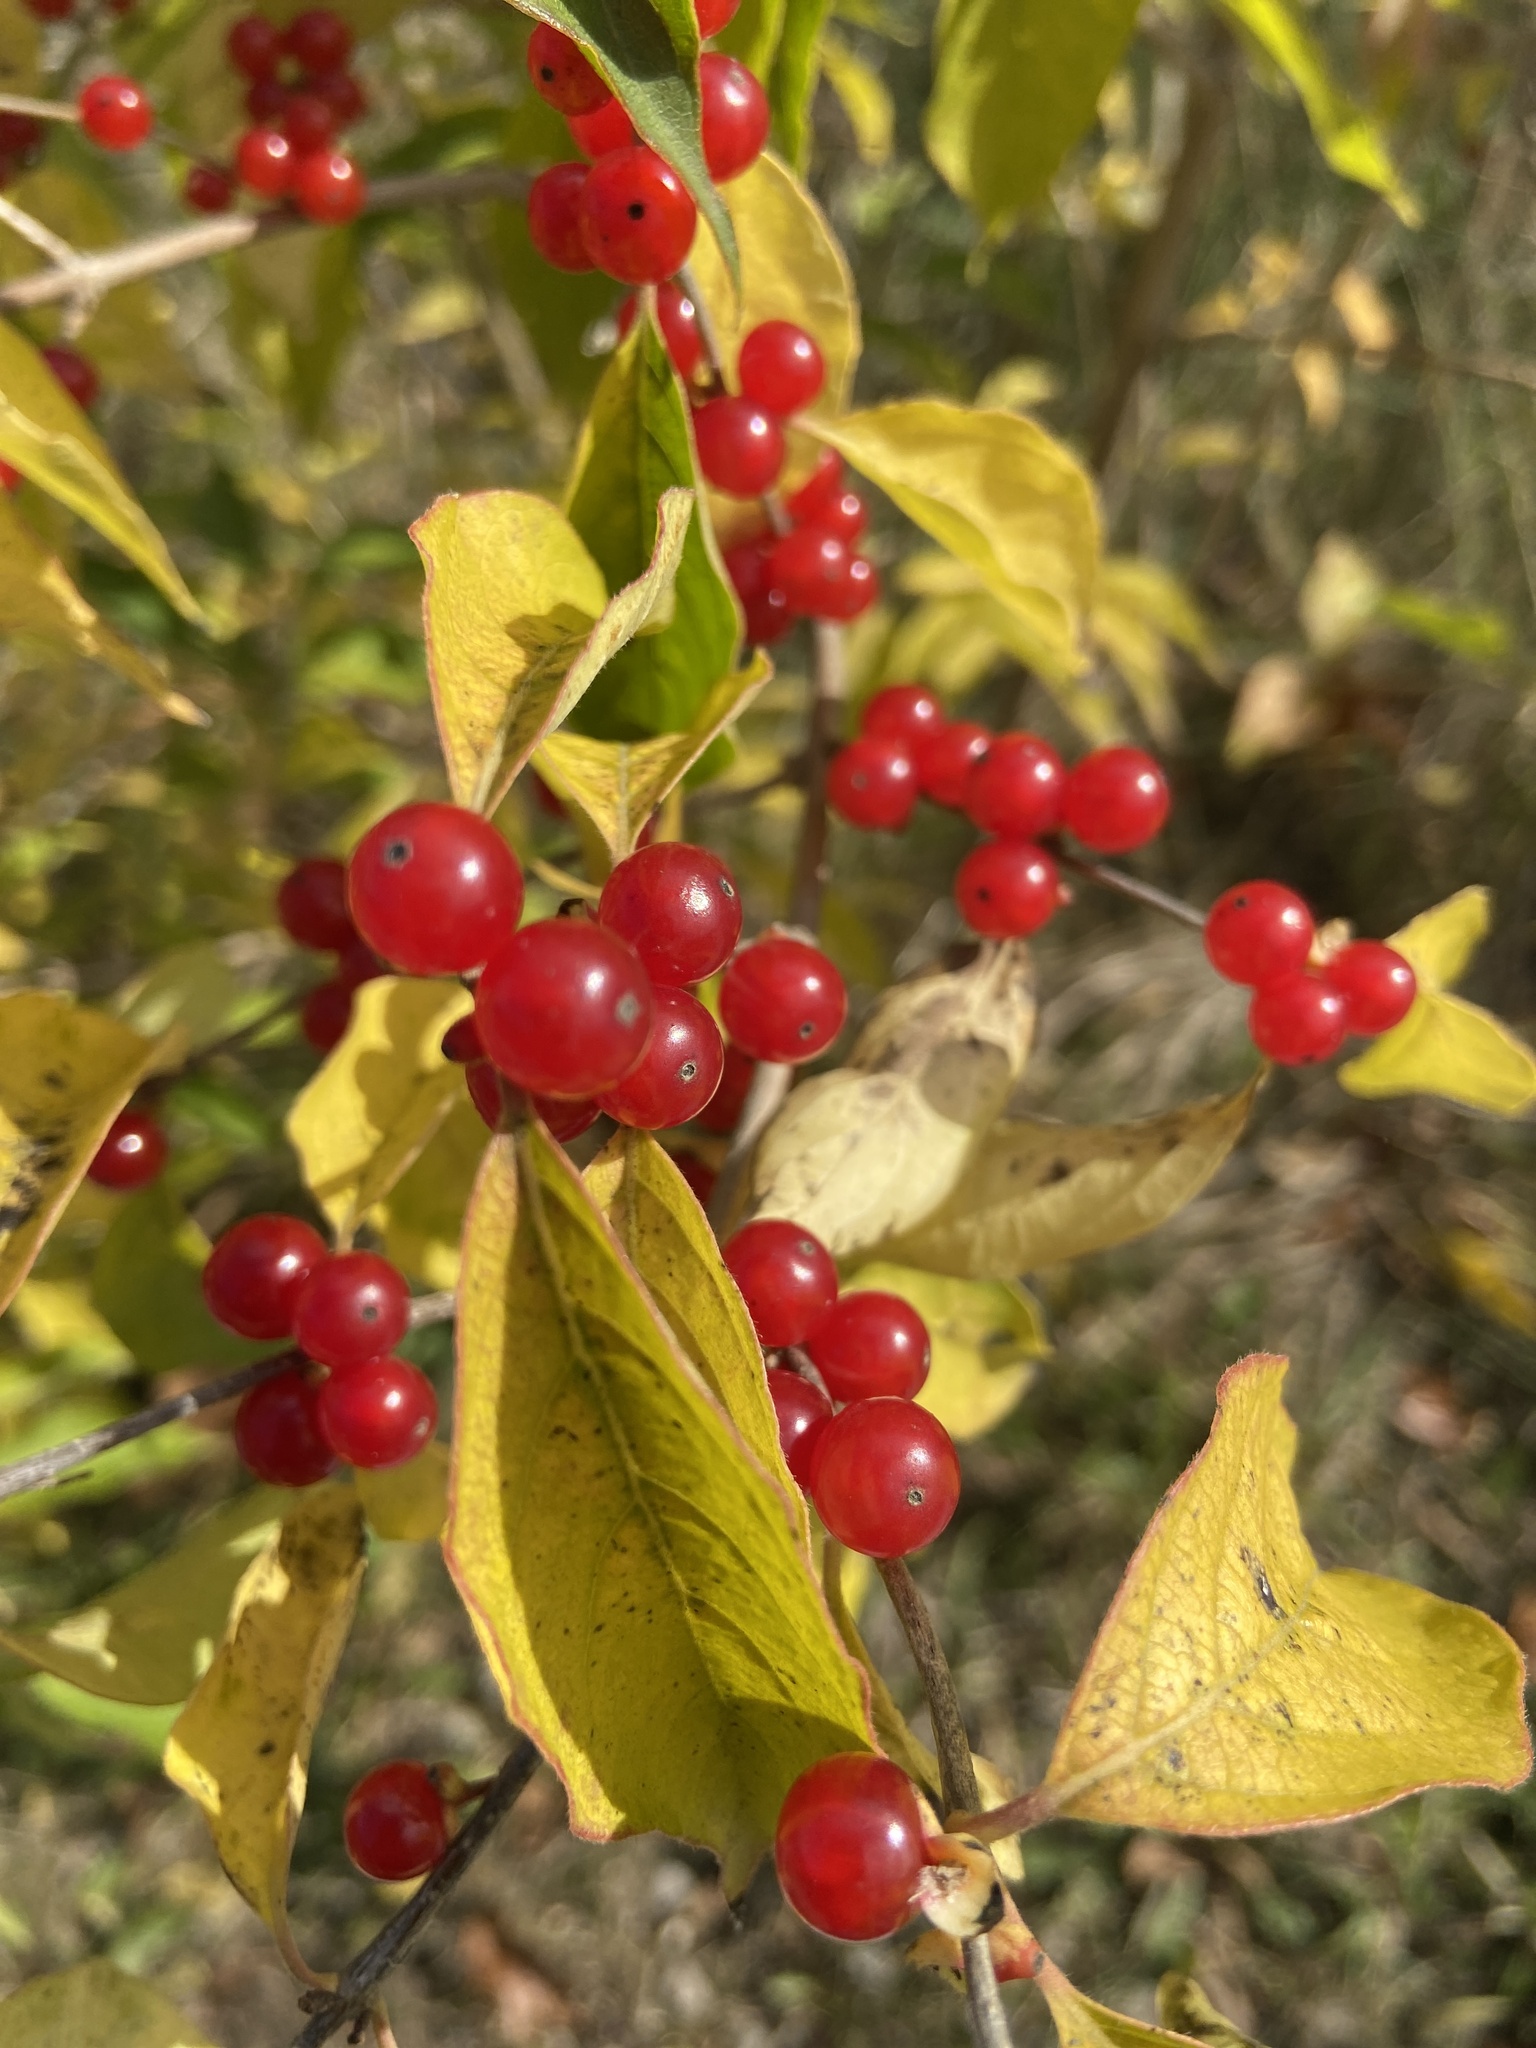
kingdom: Plantae
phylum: Tracheophyta
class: Magnoliopsida
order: Dipsacales
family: Caprifoliaceae
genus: Lonicera
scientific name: Lonicera maackii
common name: Amur honeysuckle
